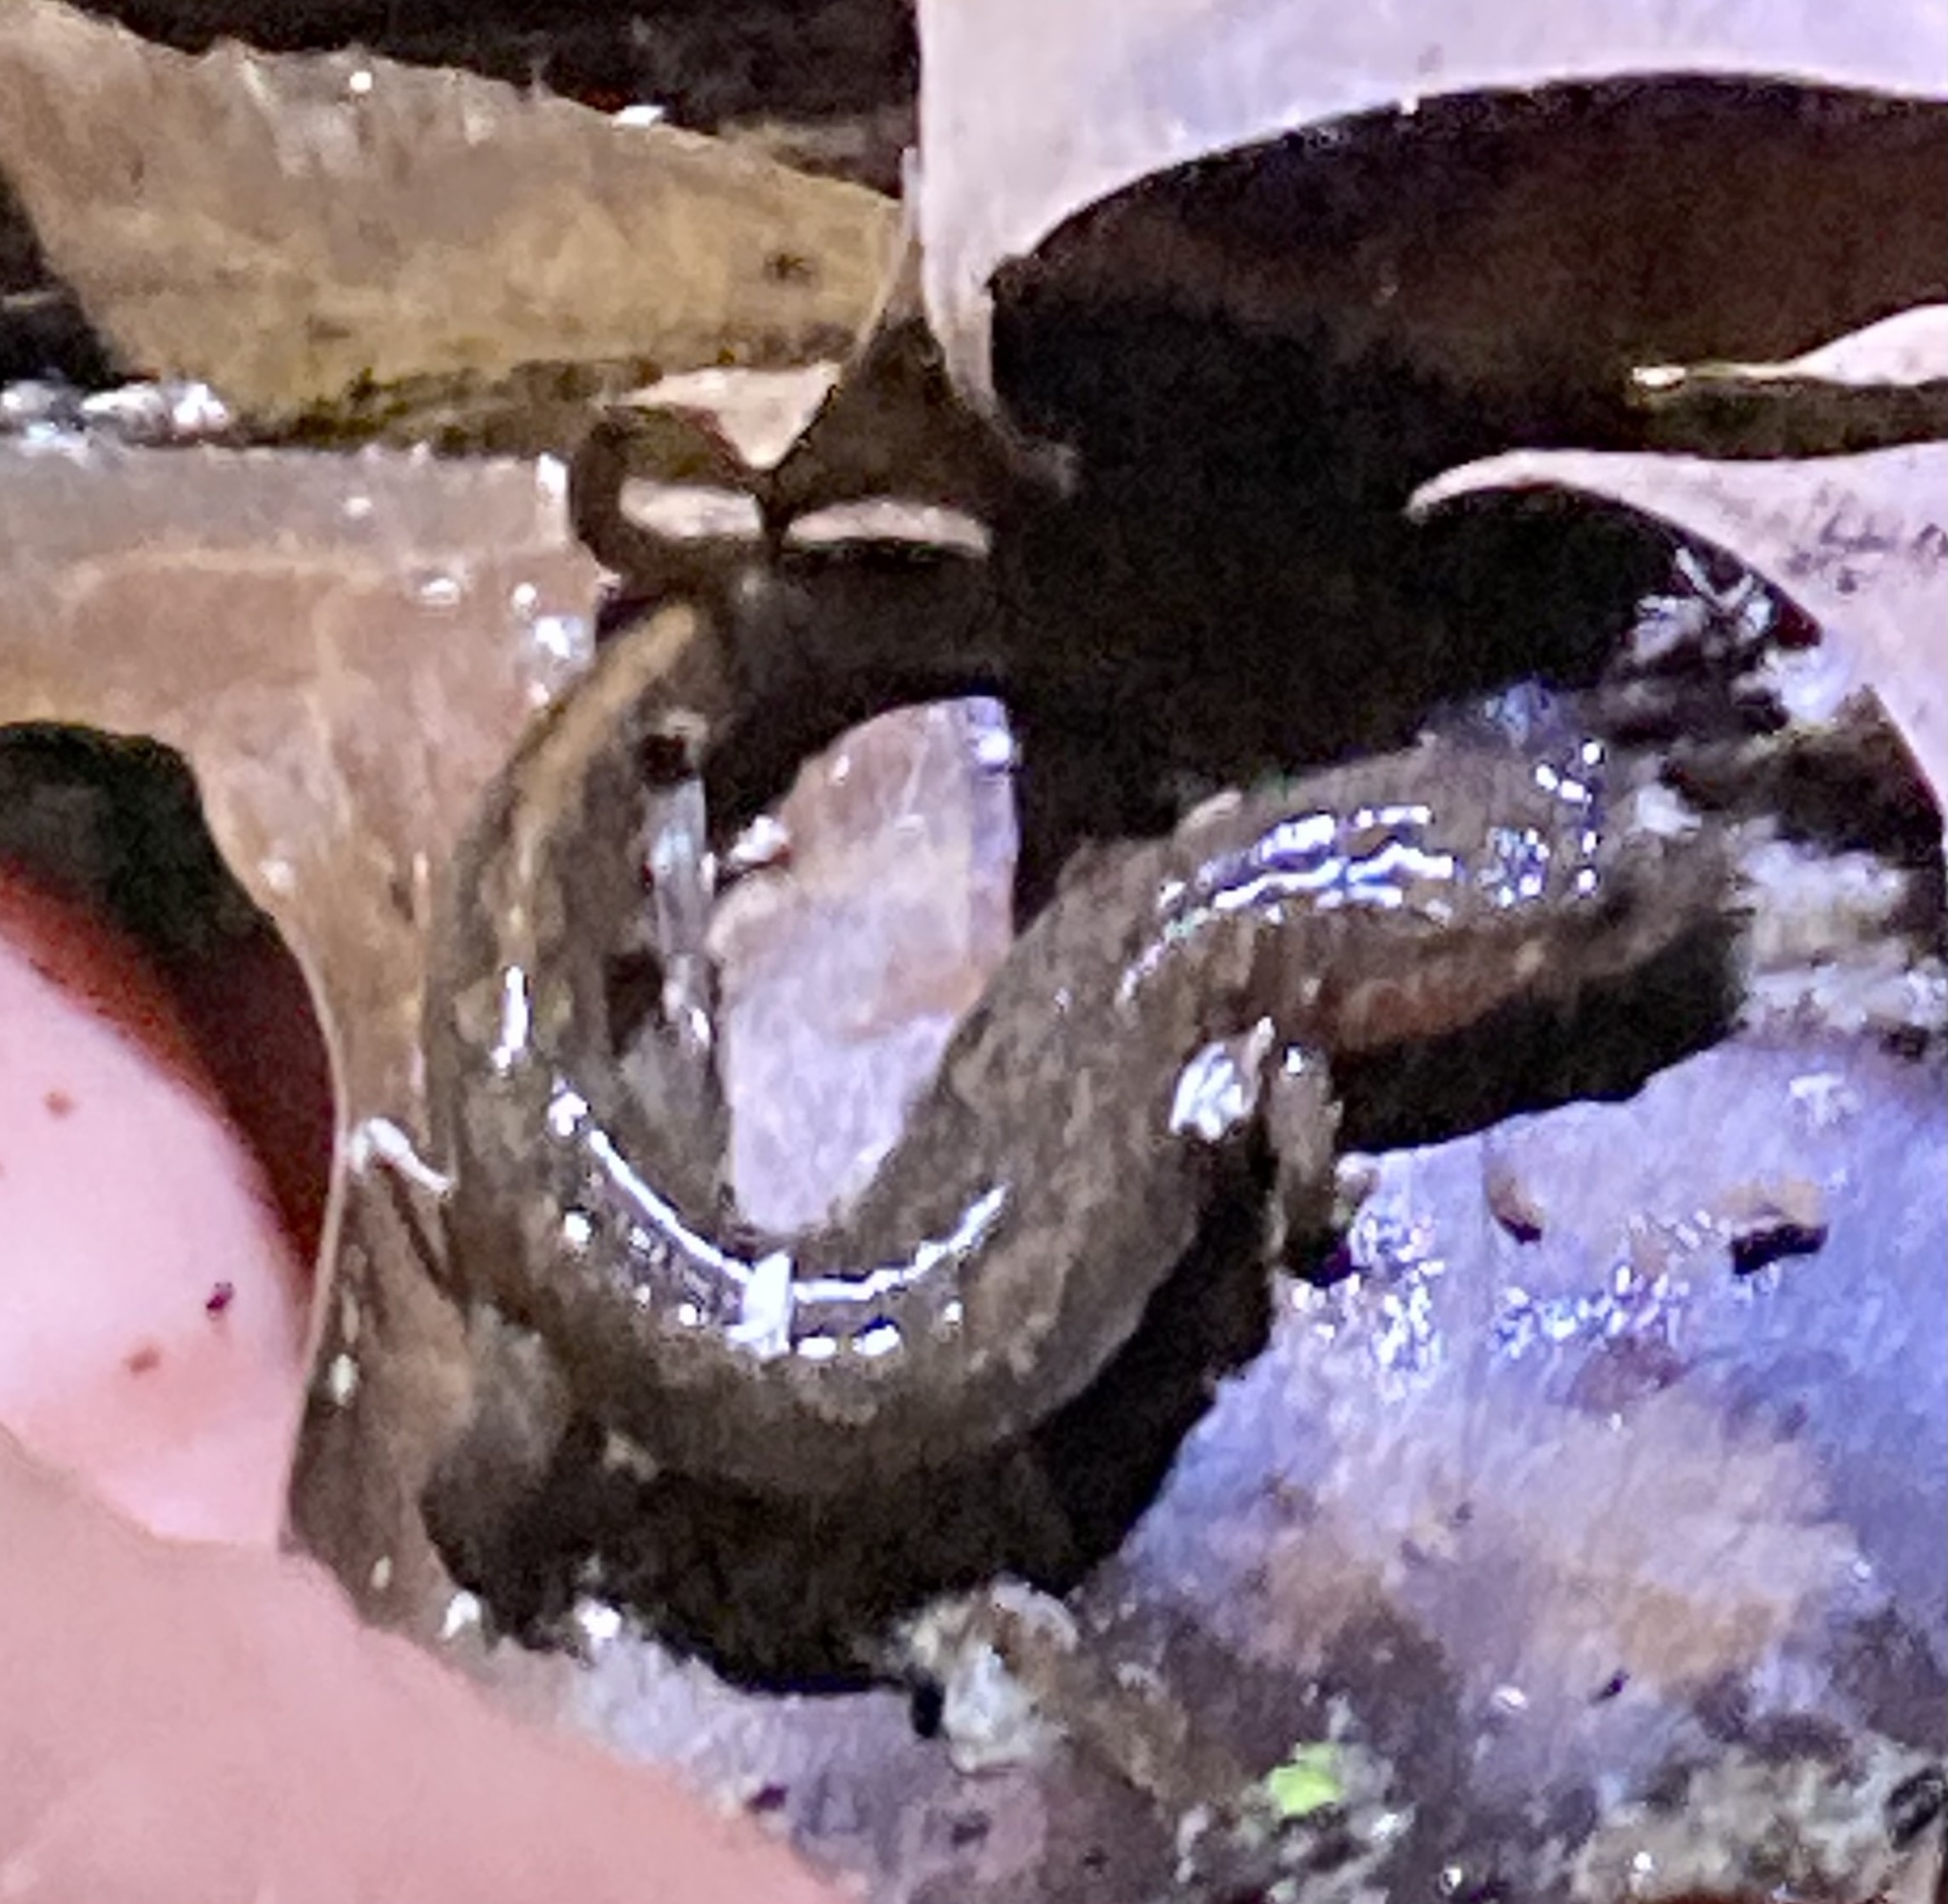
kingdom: Animalia
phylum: Chordata
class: Amphibia
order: Caudata
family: Plethodontidae
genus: Desmognathus
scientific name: Desmognathus fuscus
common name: Northern dusky salamander
